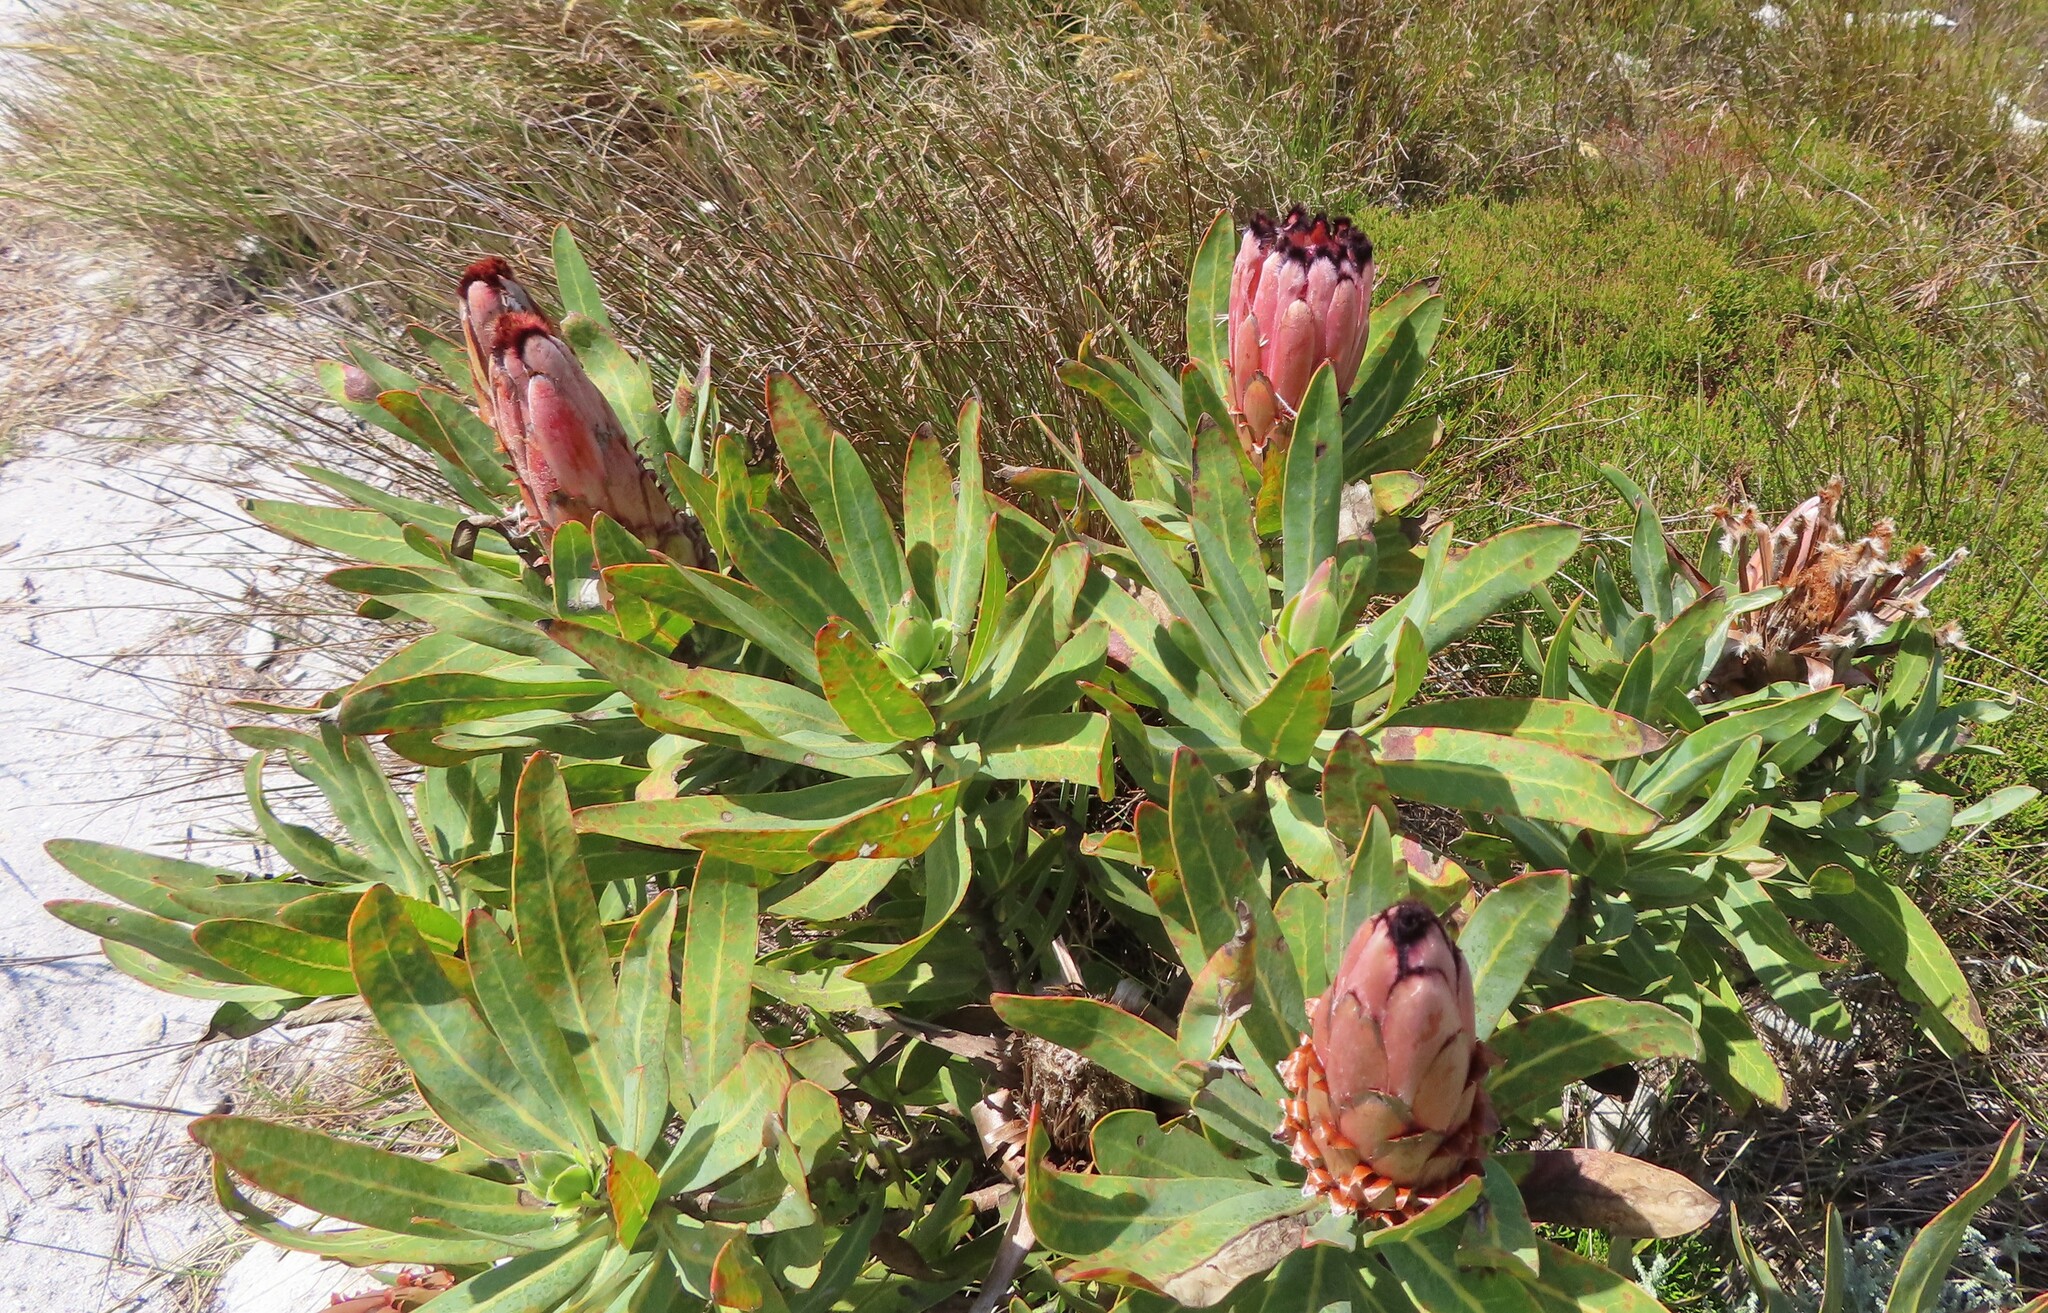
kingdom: Plantae
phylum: Tracheophyta
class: Magnoliopsida
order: Proteales
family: Proteaceae
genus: Protea
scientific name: Protea laurifolia
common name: Grey-leaf sugarbsh
